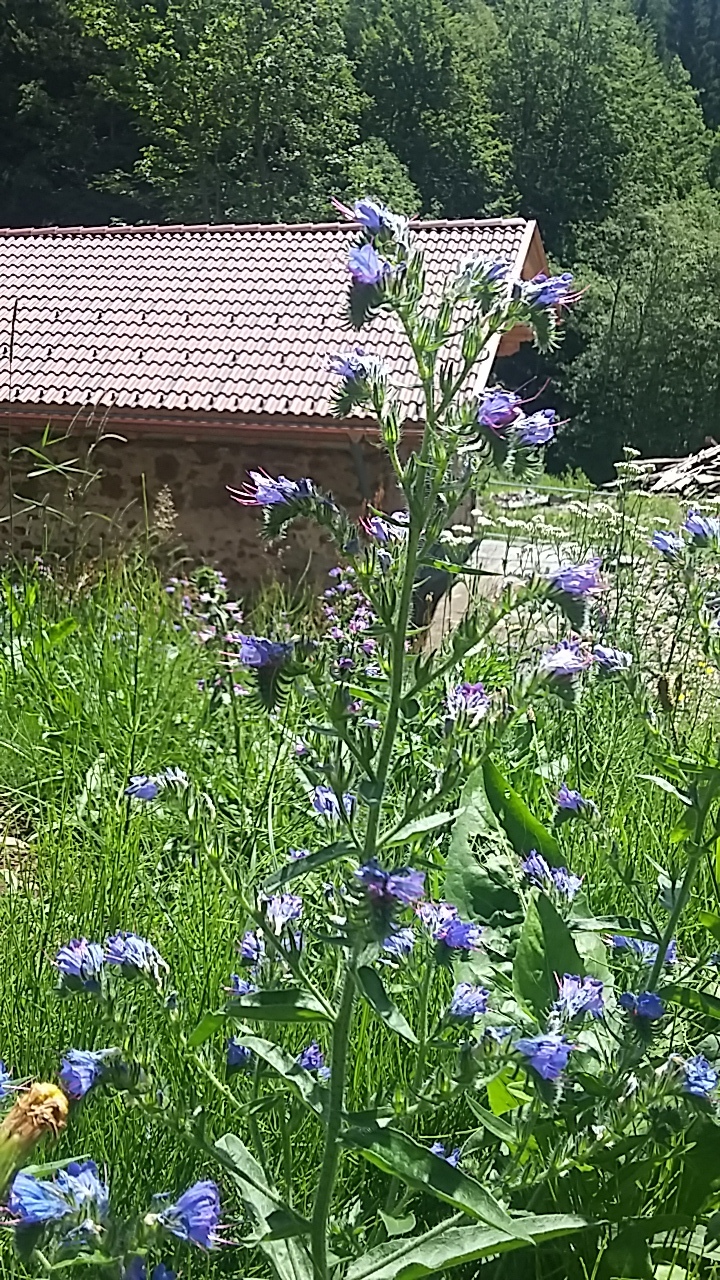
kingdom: Plantae
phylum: Tracheophyta
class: Magnoliopsida
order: Boraginales
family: Boraginaceae
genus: Echium
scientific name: Echium vulgare
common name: Common viper's bugloss
